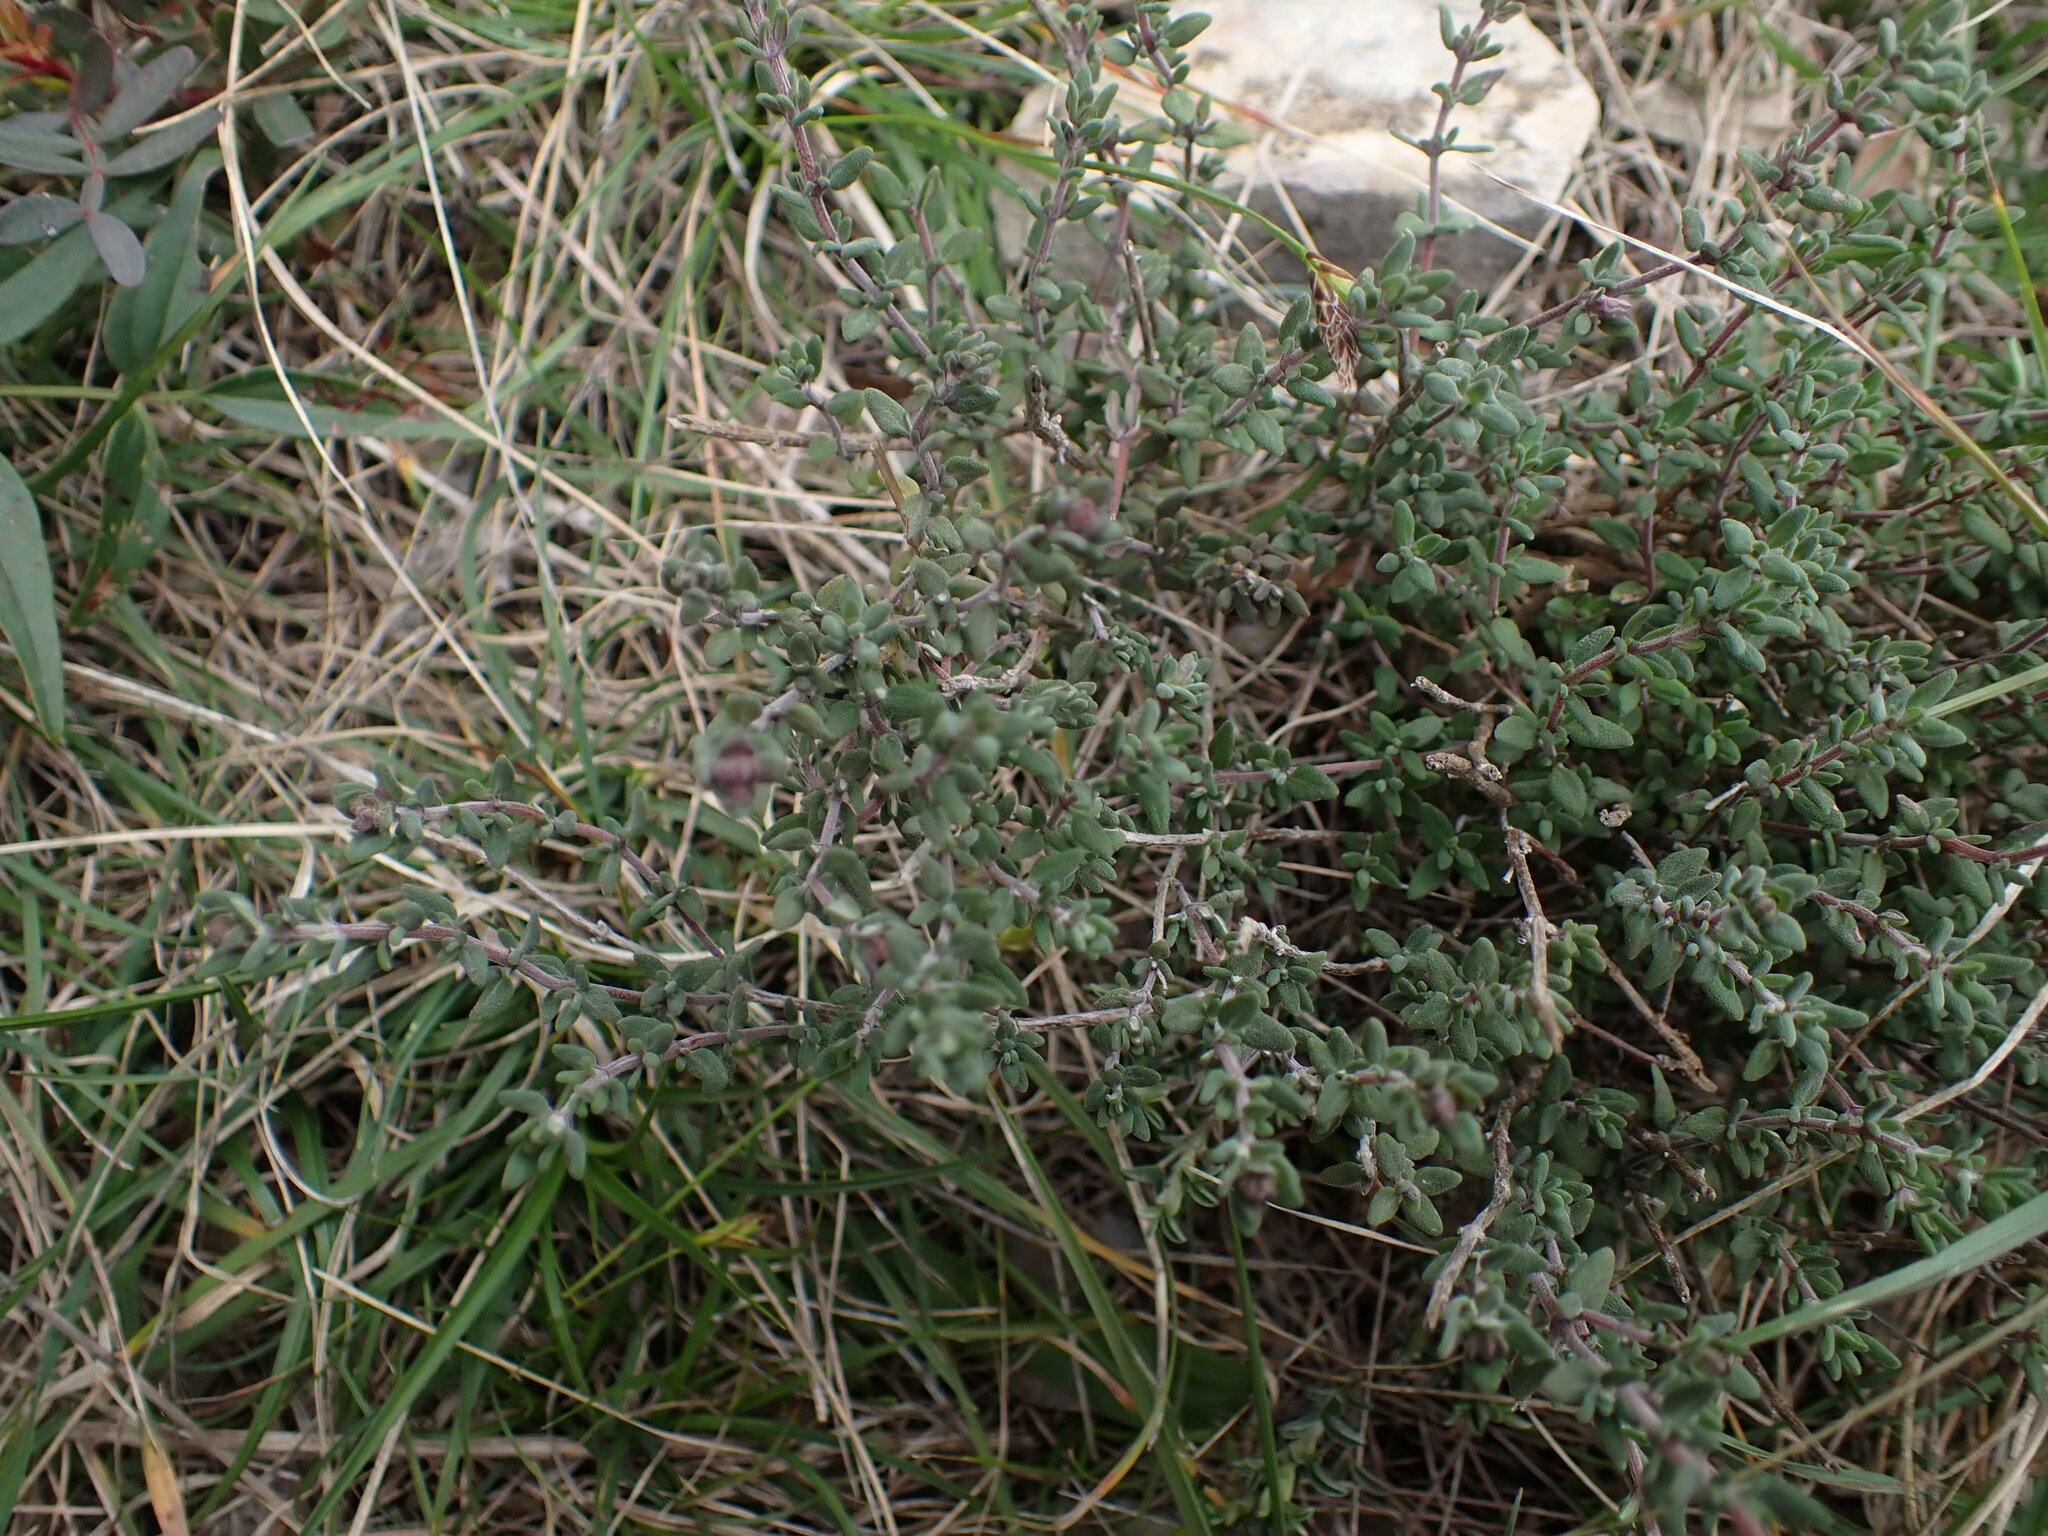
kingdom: Plantae
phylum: Tracheophyta
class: Magnoliopsida
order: Lamiales
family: Lamiaceae
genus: Thymus
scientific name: Thymus vulgaris
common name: Garden thyme
